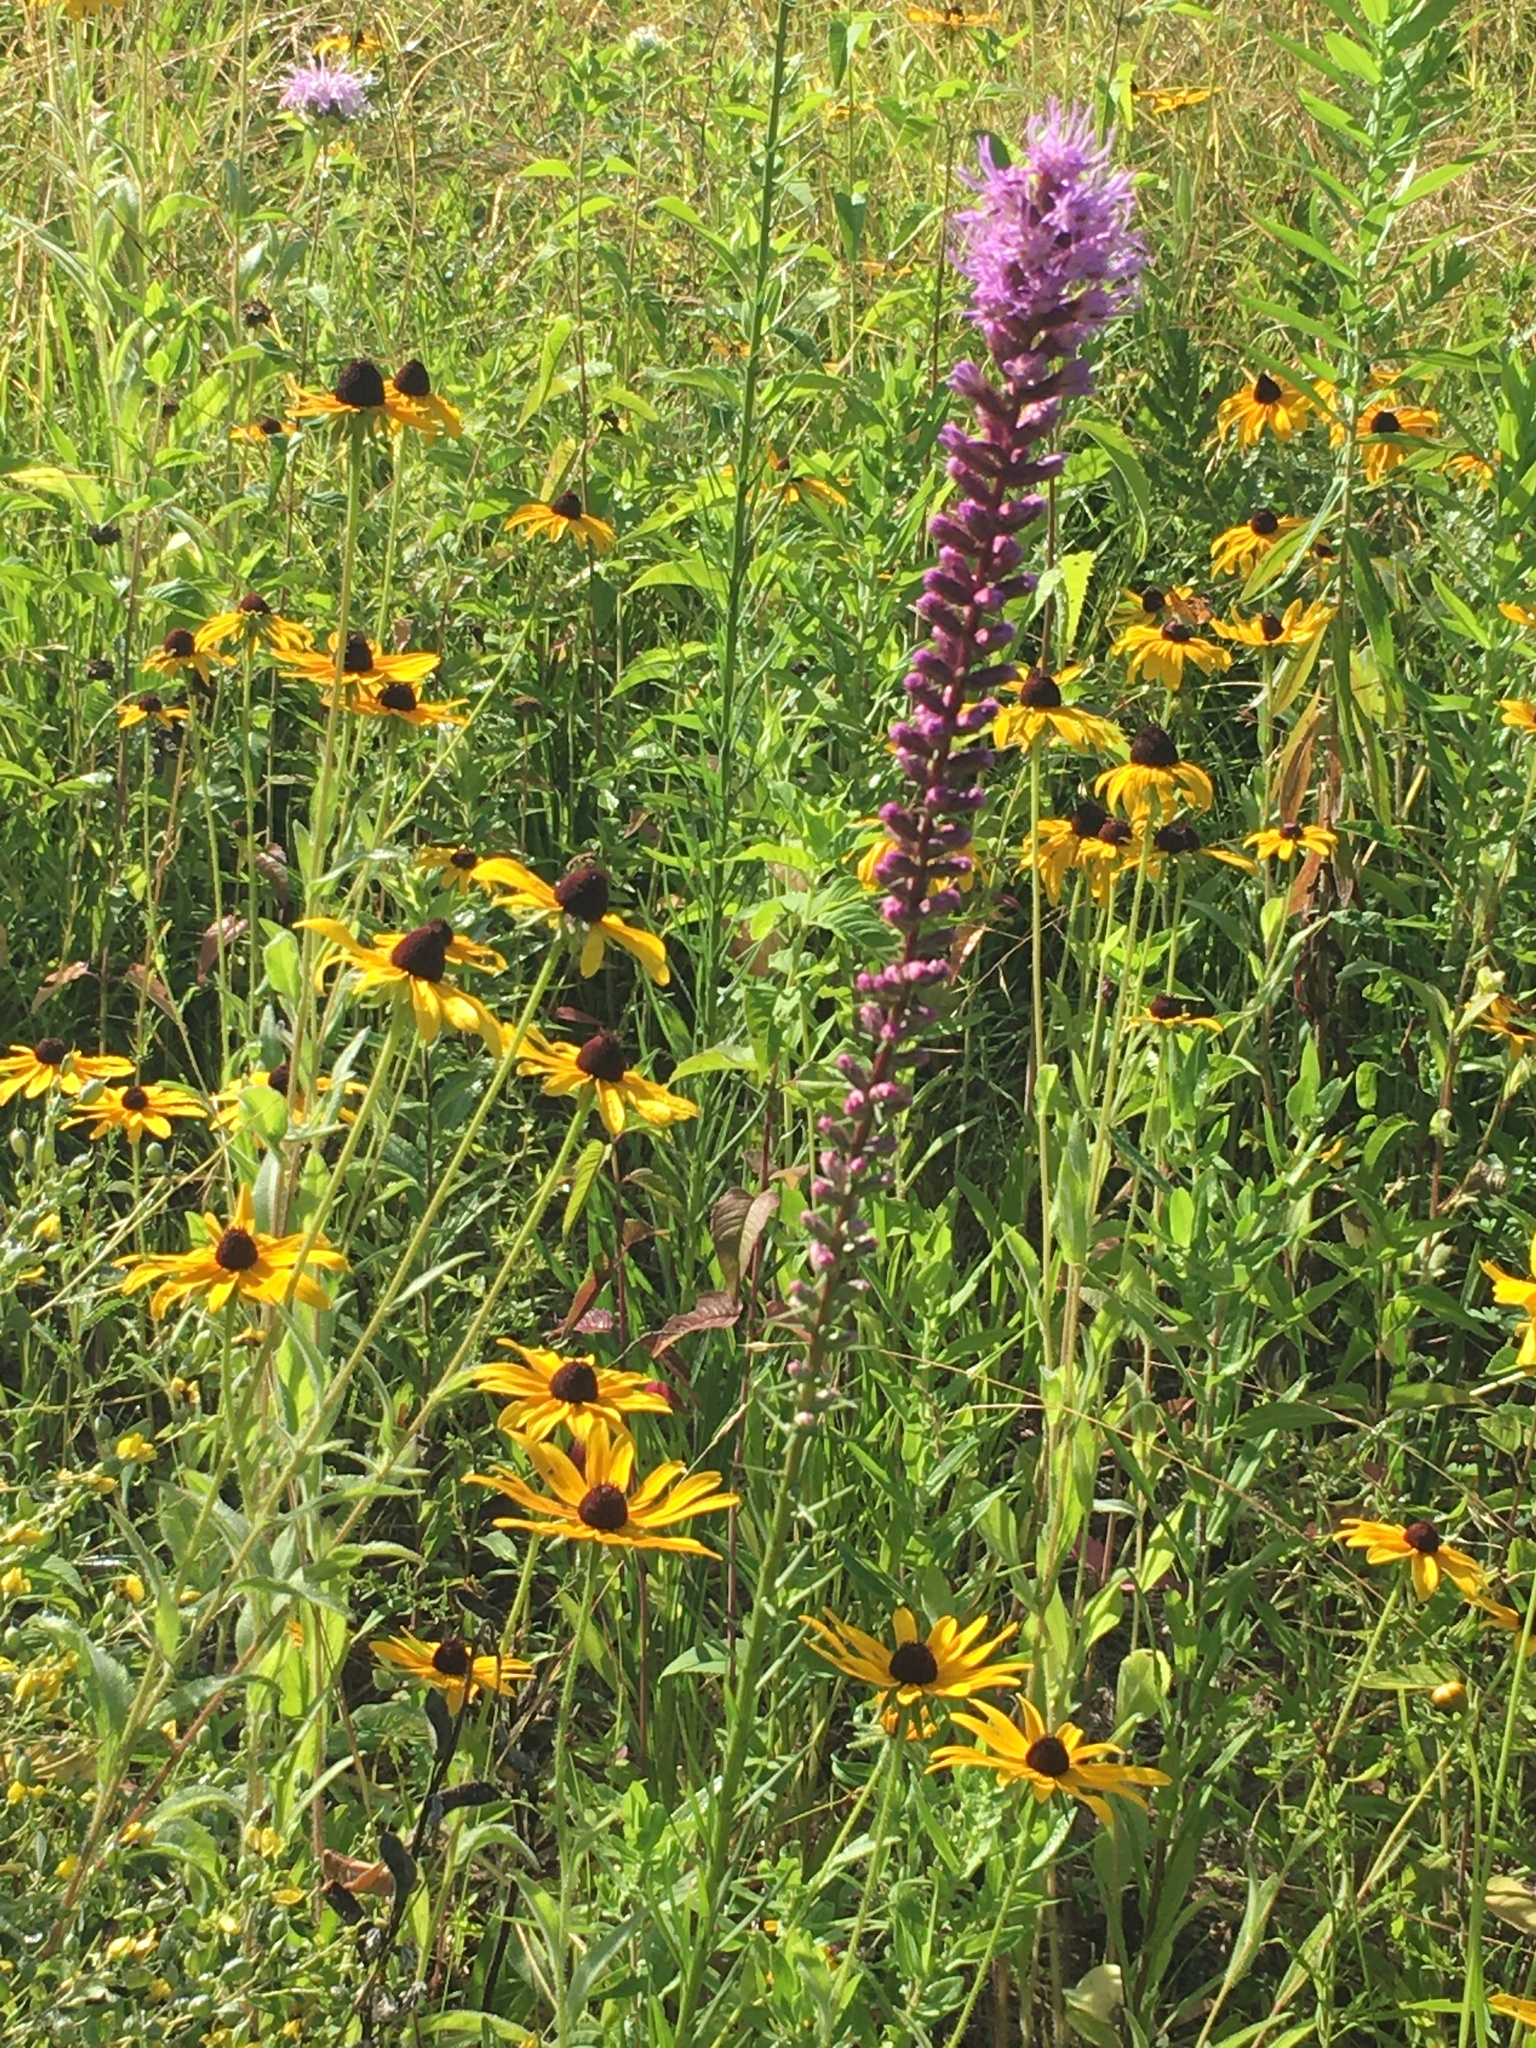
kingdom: Plantae
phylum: Tracheophyta
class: Magnoliopsida
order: Asterales
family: Asteraceae
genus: Liatris
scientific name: Liatris spicata
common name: Florist gayfeather
